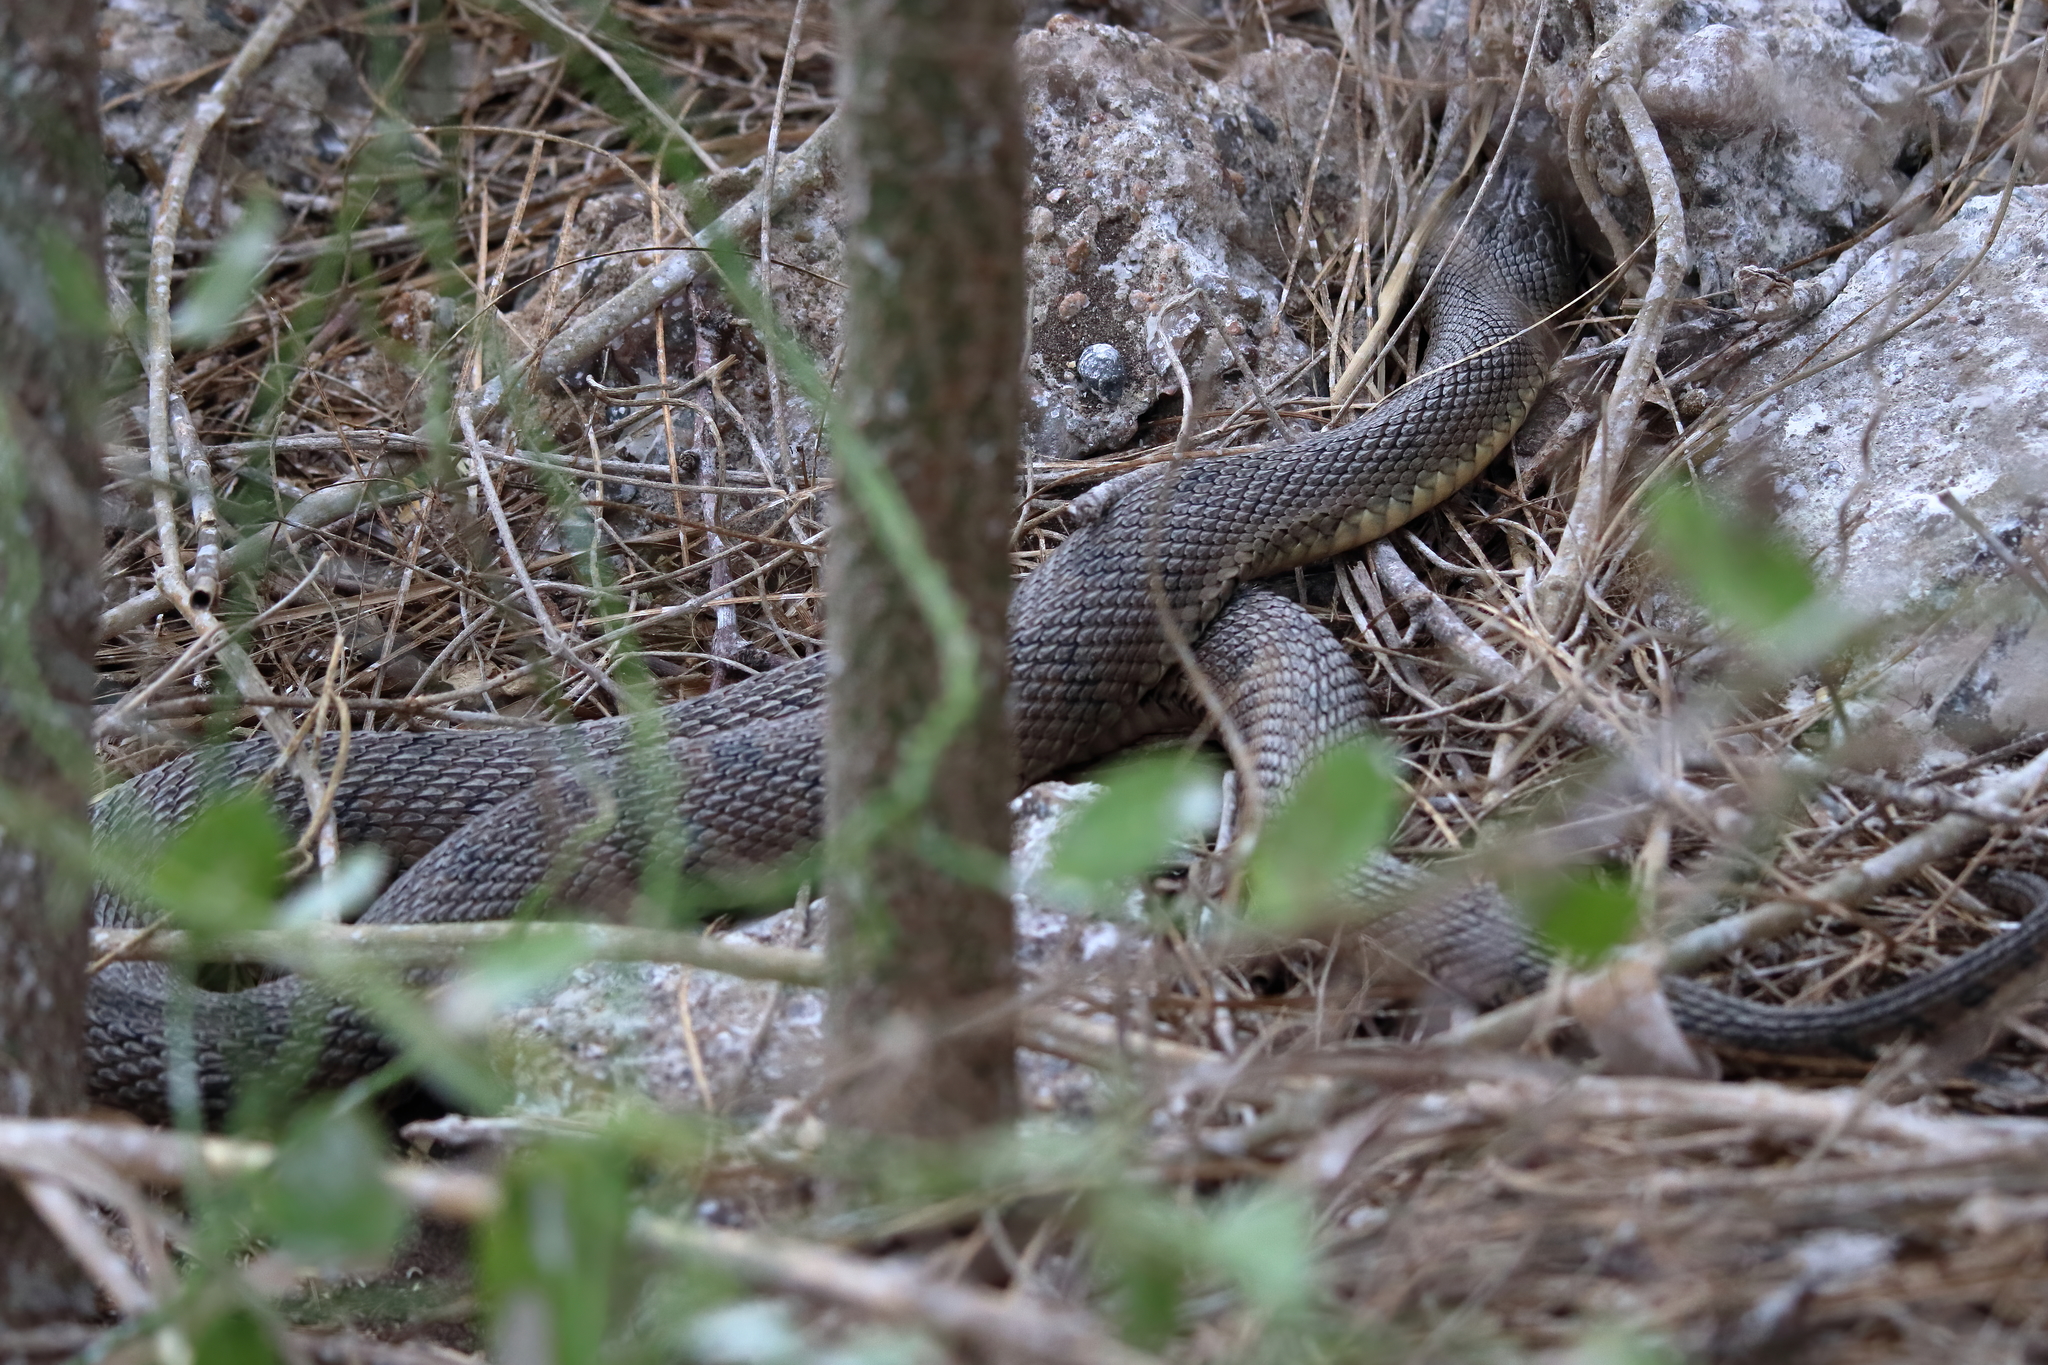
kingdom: Animalia
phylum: Chordata
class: Squamata
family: Colubridae
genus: Nerodia
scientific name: Nerodia erythrogaster
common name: Plainbelly water snake
